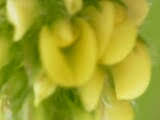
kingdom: Plantae
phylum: Tracheophyta
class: Magnoliopsida
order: Fabales
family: Fabaceae
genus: Medicago
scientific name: Medicago lupulina
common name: Black medick
